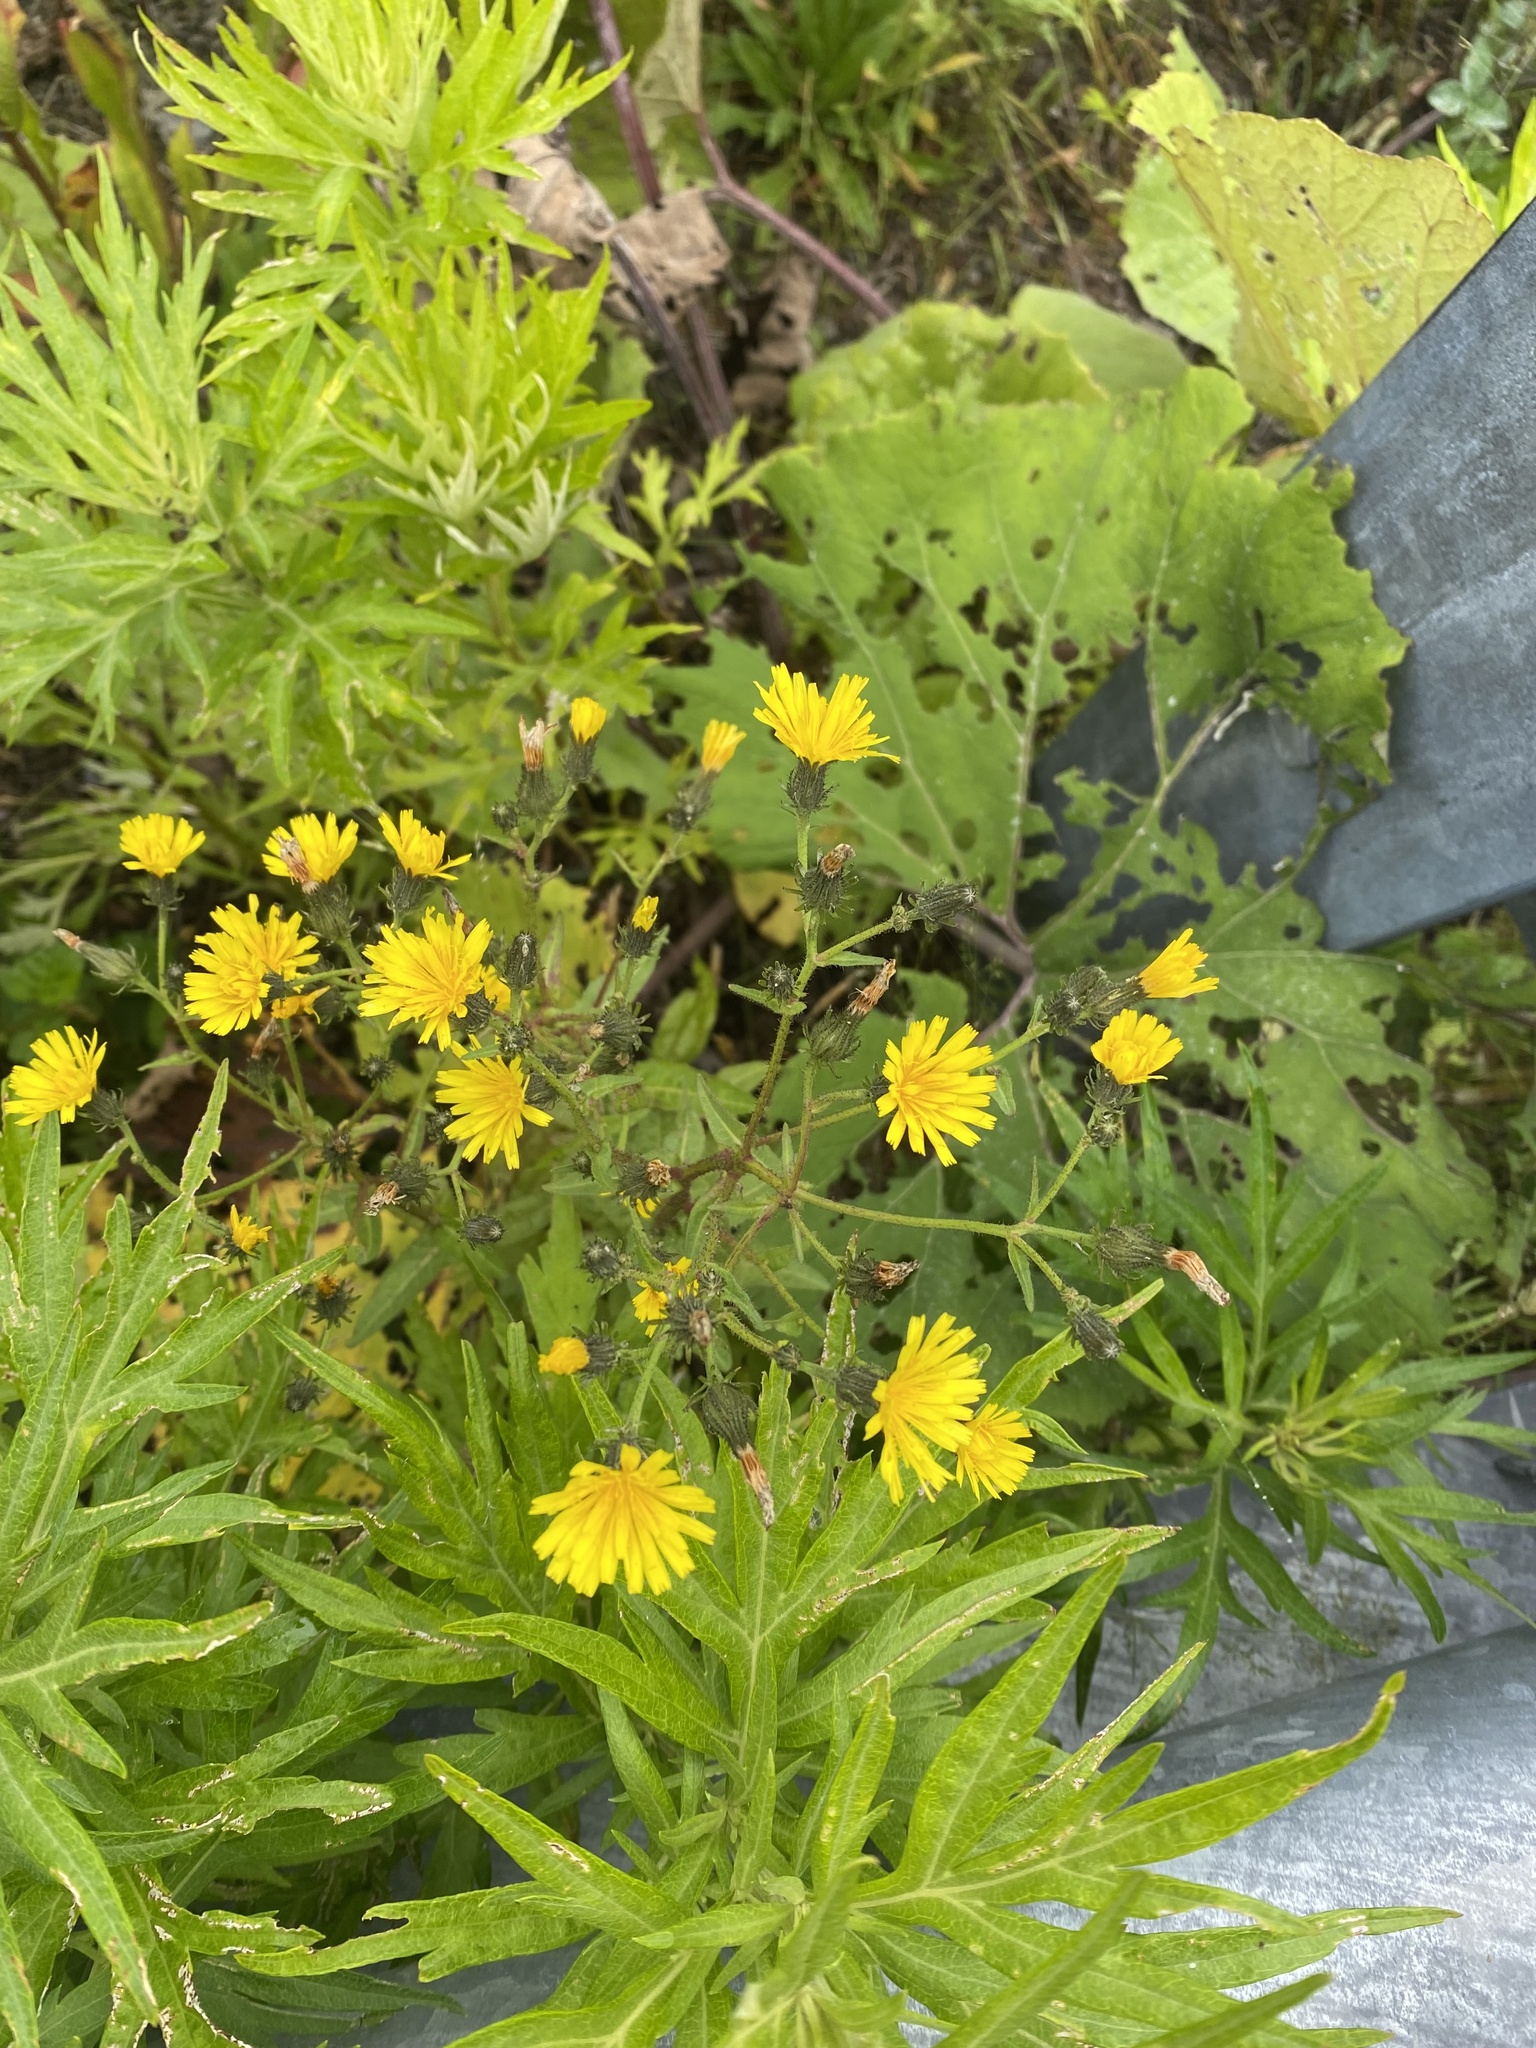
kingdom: Plantae
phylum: Tracheophyta
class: Magnoliopsida
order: Asterales
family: Asteraceae
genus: Picris
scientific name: Picris japonica
